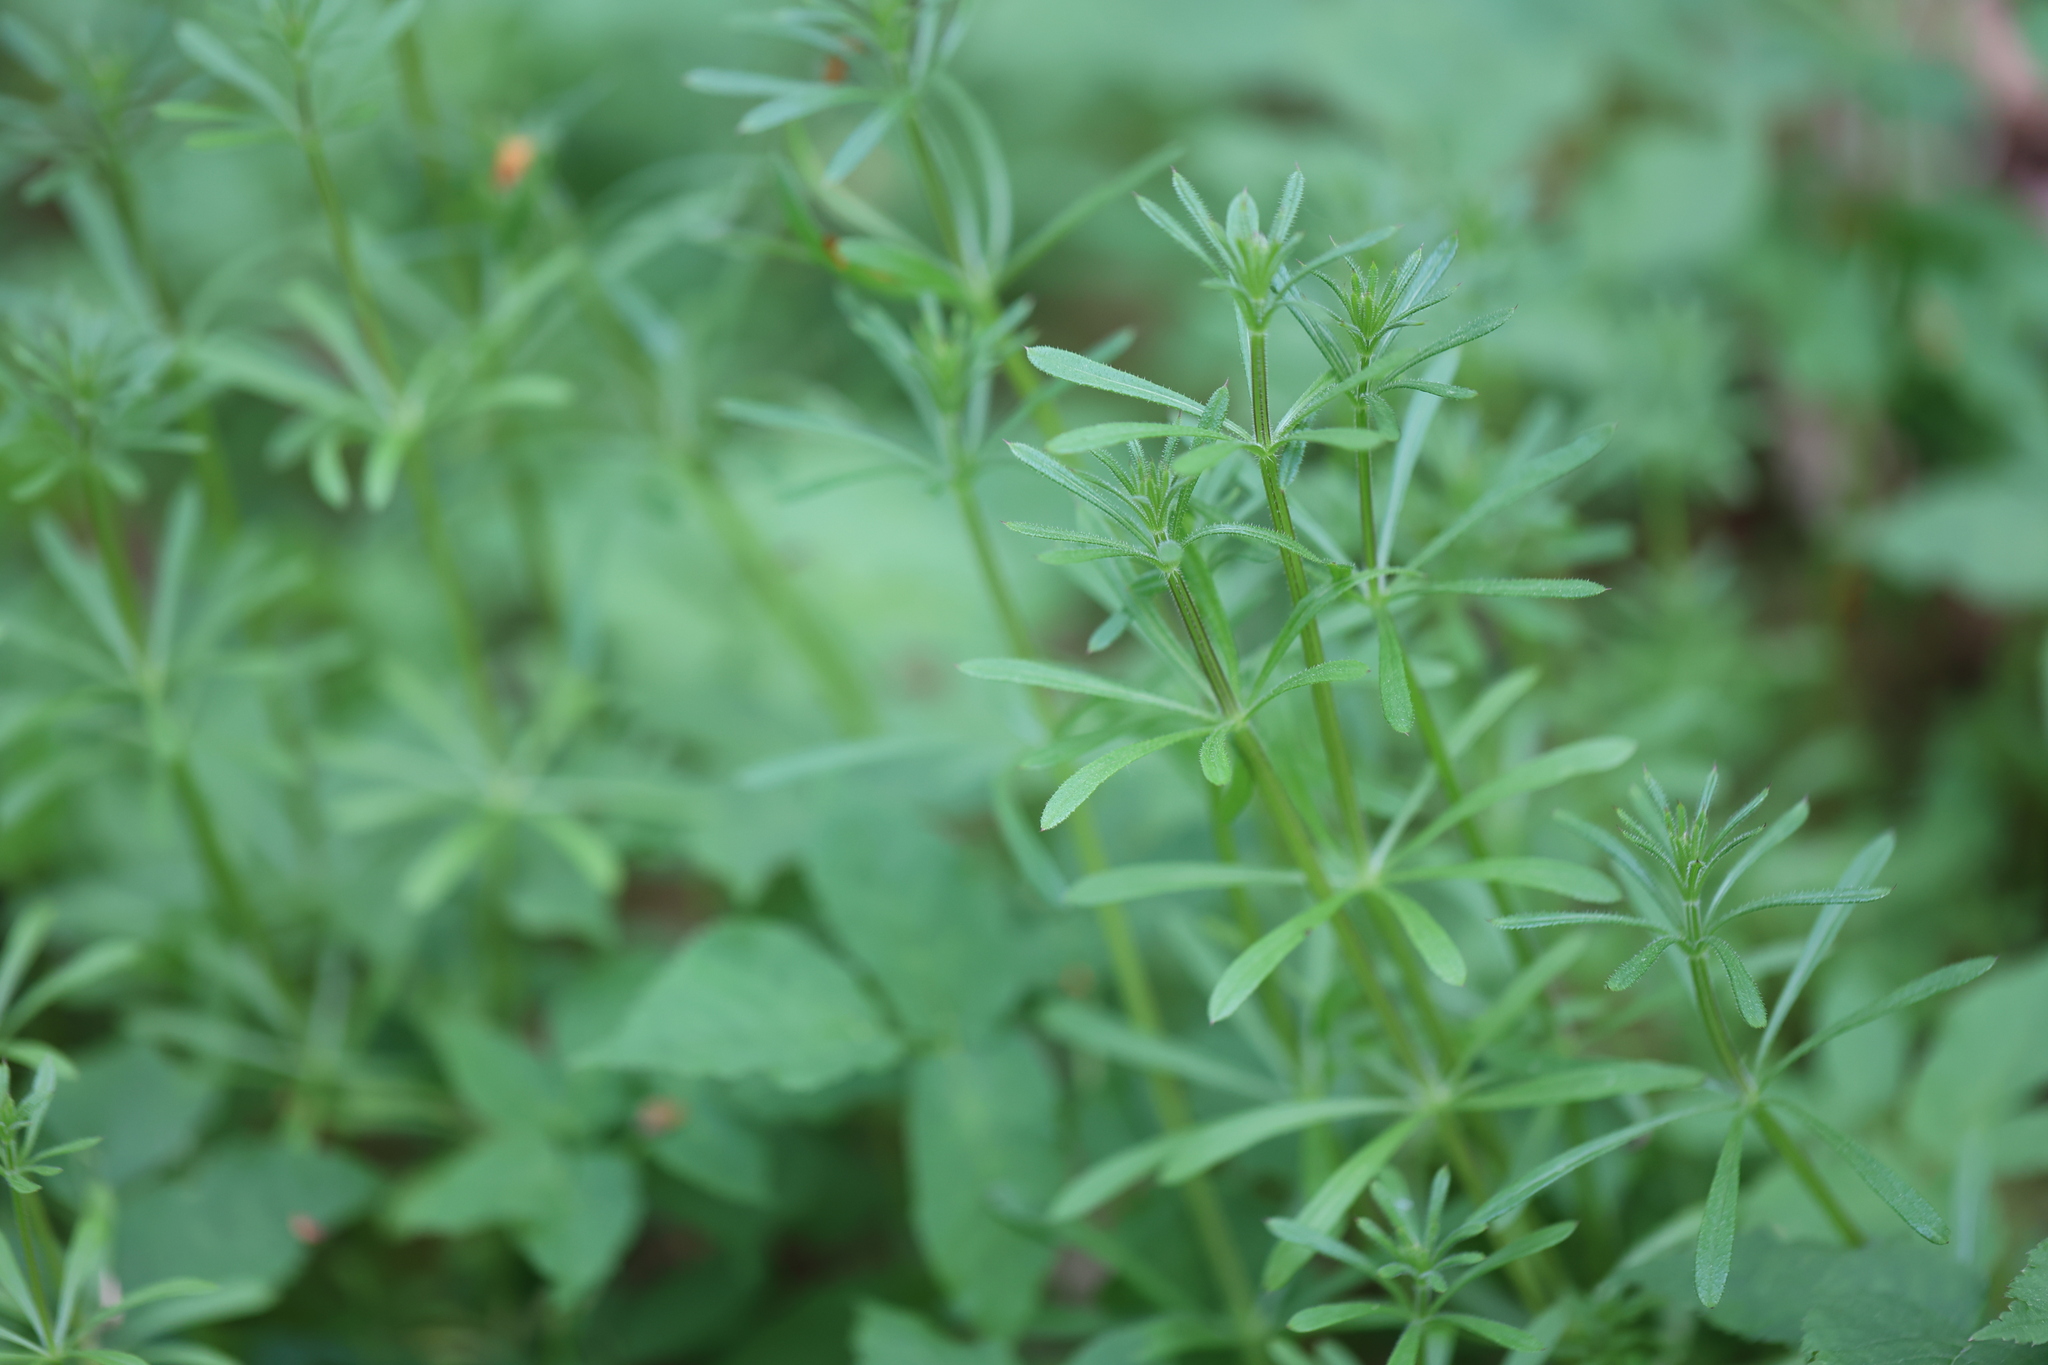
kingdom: Plantae
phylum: Tracheophyta
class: Magnoliopsida
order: Gentianales
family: Rubiaceae
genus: Galium
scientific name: Galium aparine
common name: Cleavers
